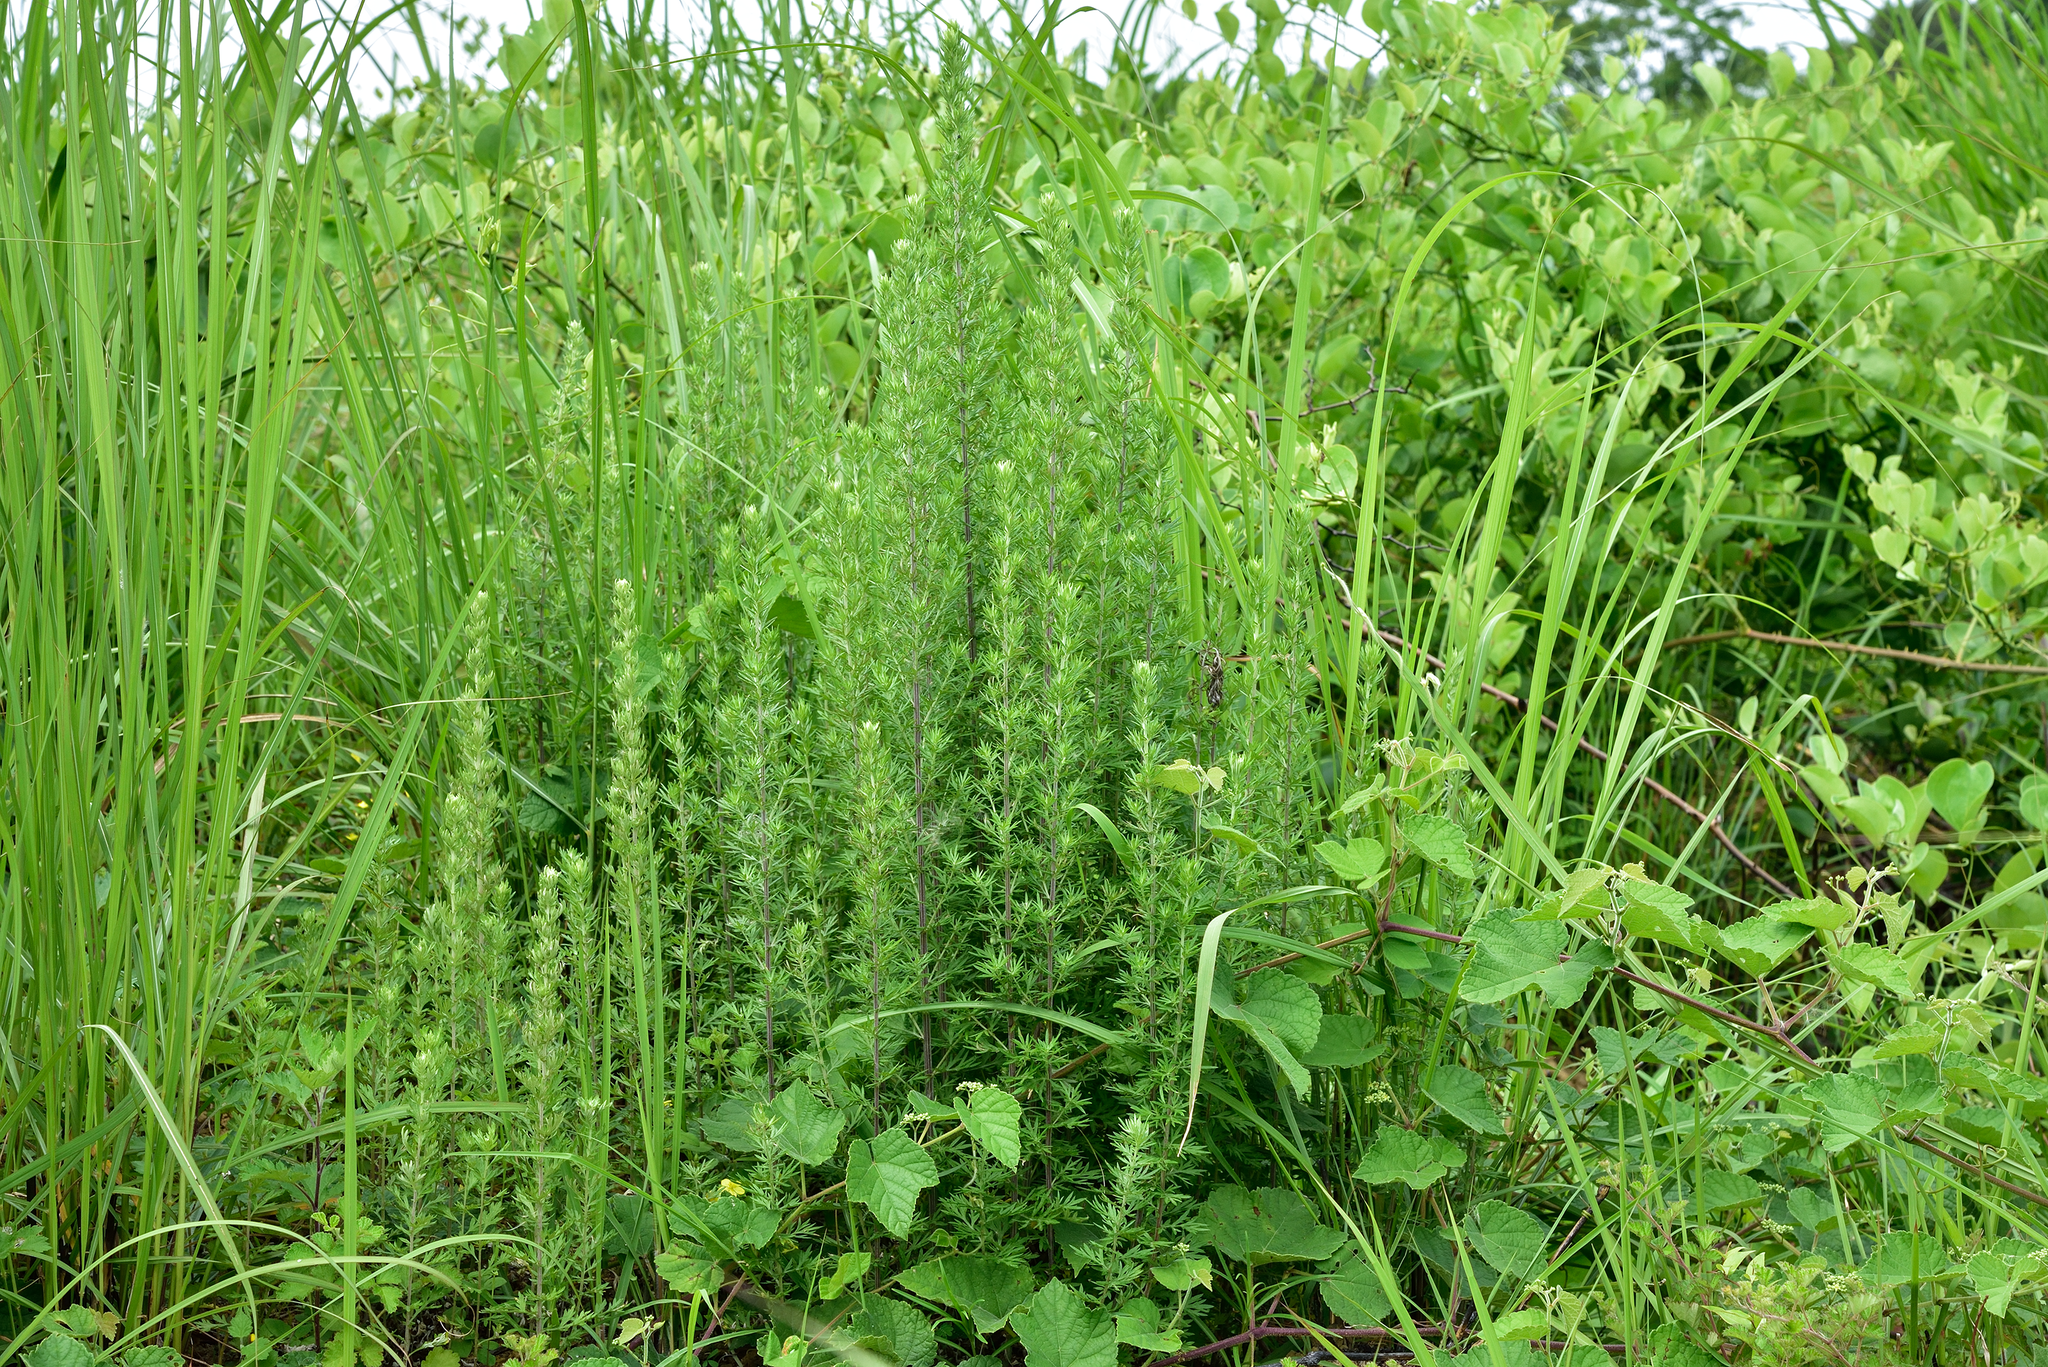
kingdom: Plantae
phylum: Tracheophyta
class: Magnoliopsida
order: Asterales
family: Asteraceae
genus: Artemisia
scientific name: Artemisia indica
